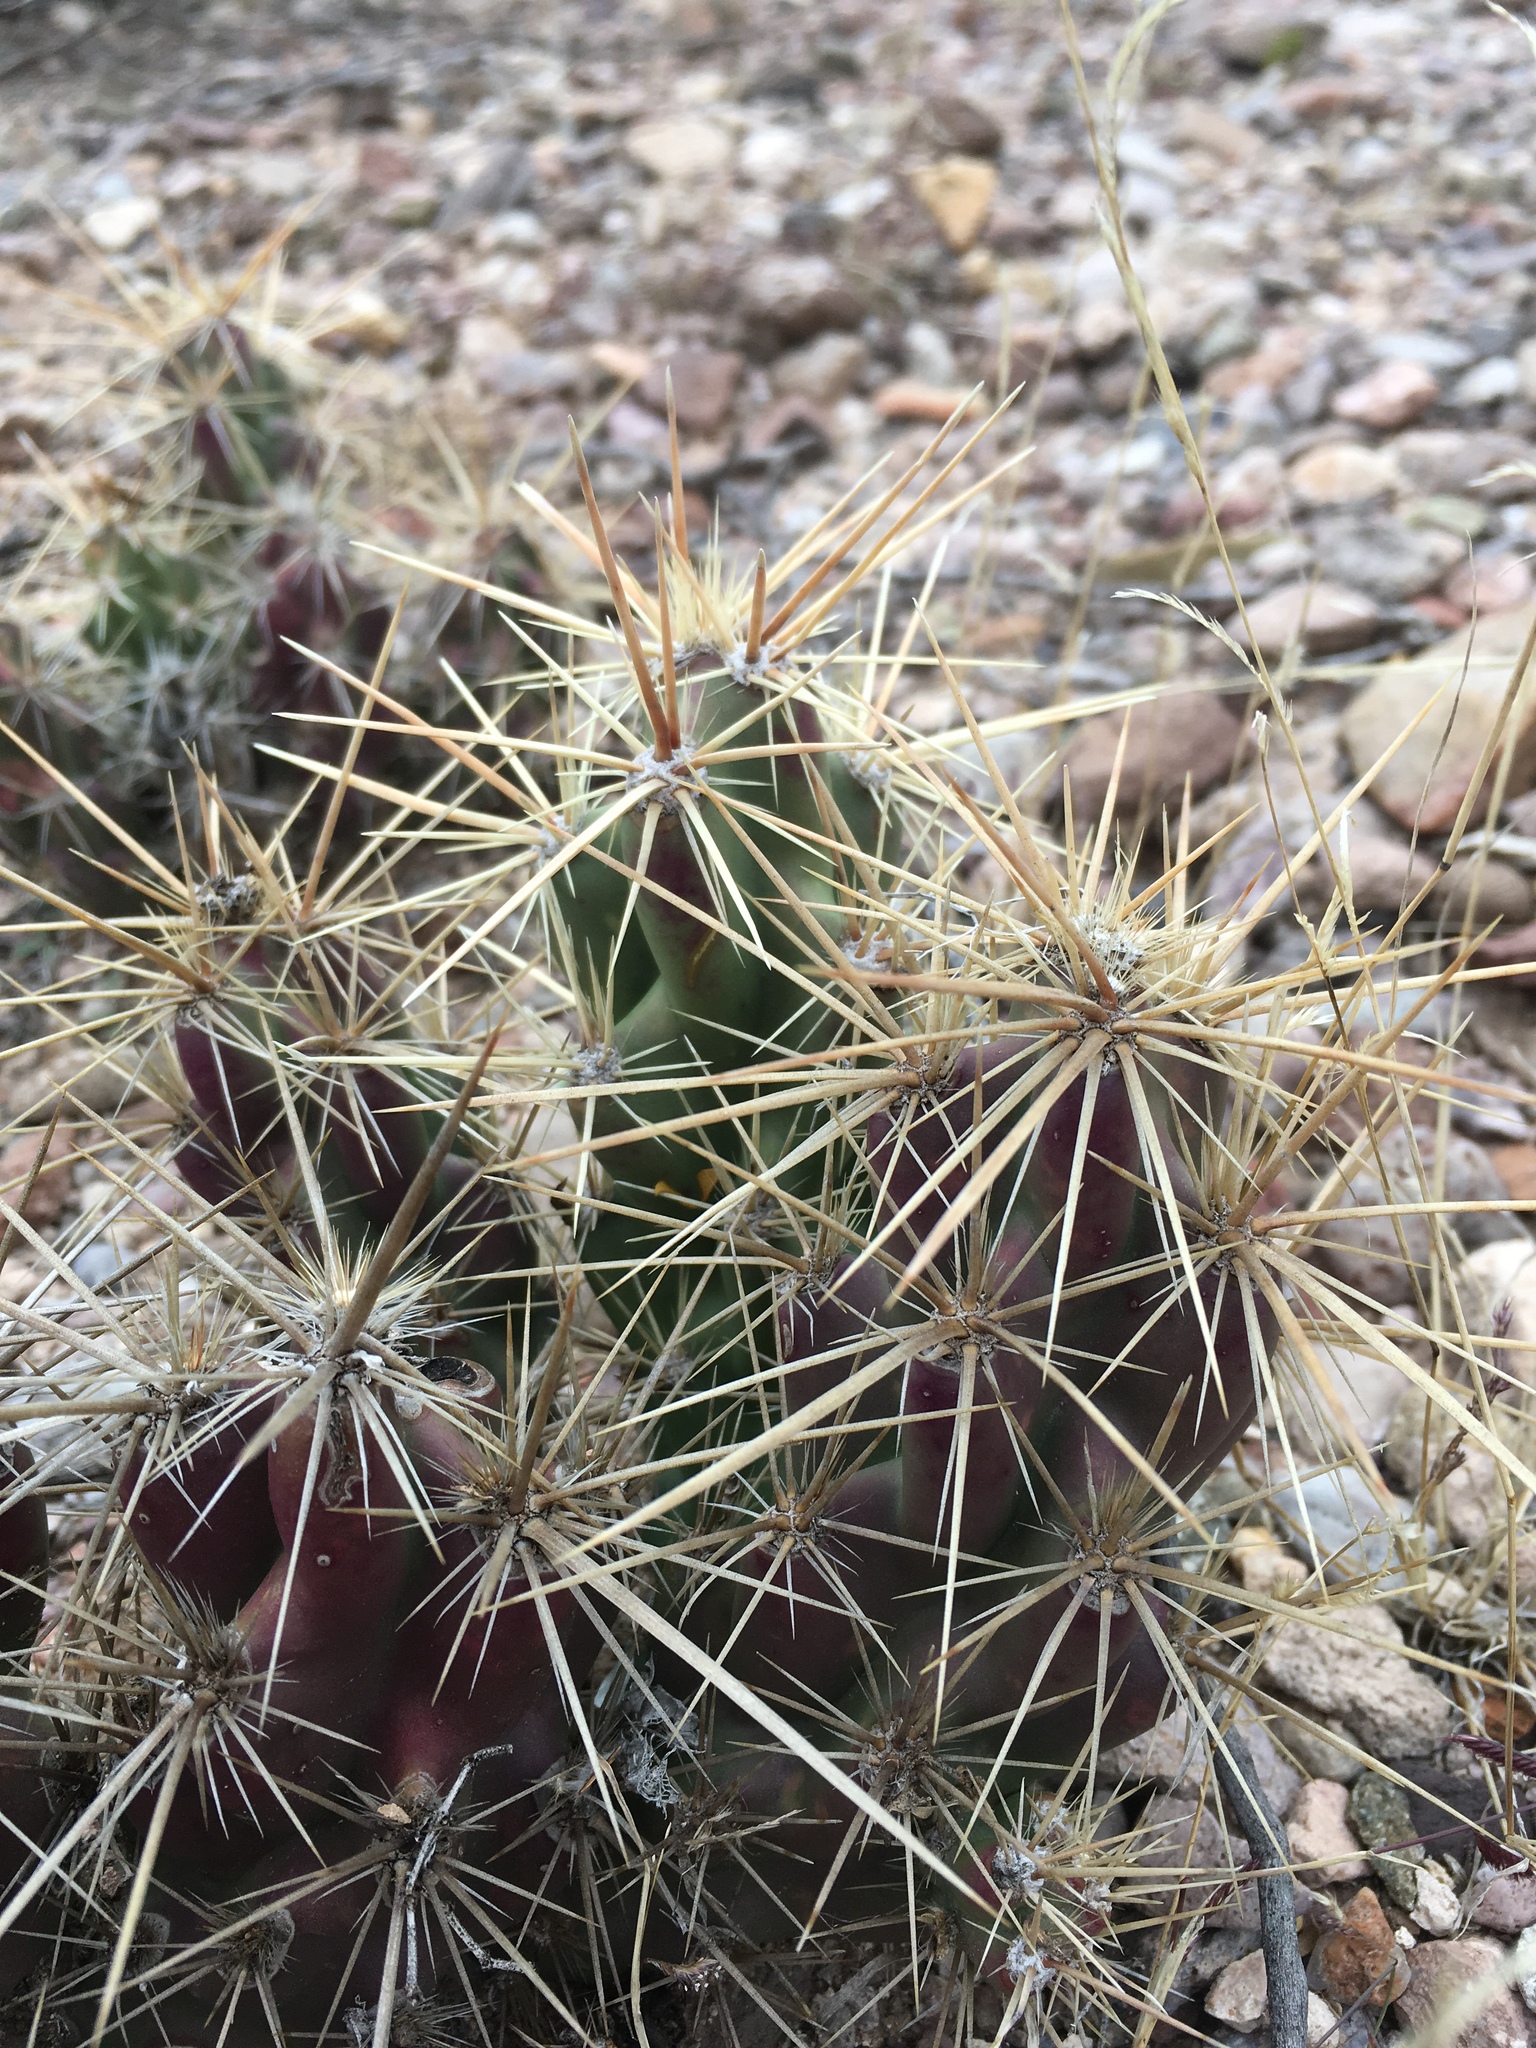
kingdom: Plantae
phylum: Tracheophyta
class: Magnoliopsida
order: Caryophyllales
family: Cactaceae
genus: Grusonia
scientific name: Grusonia emoryi
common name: Stanly's club cholla
